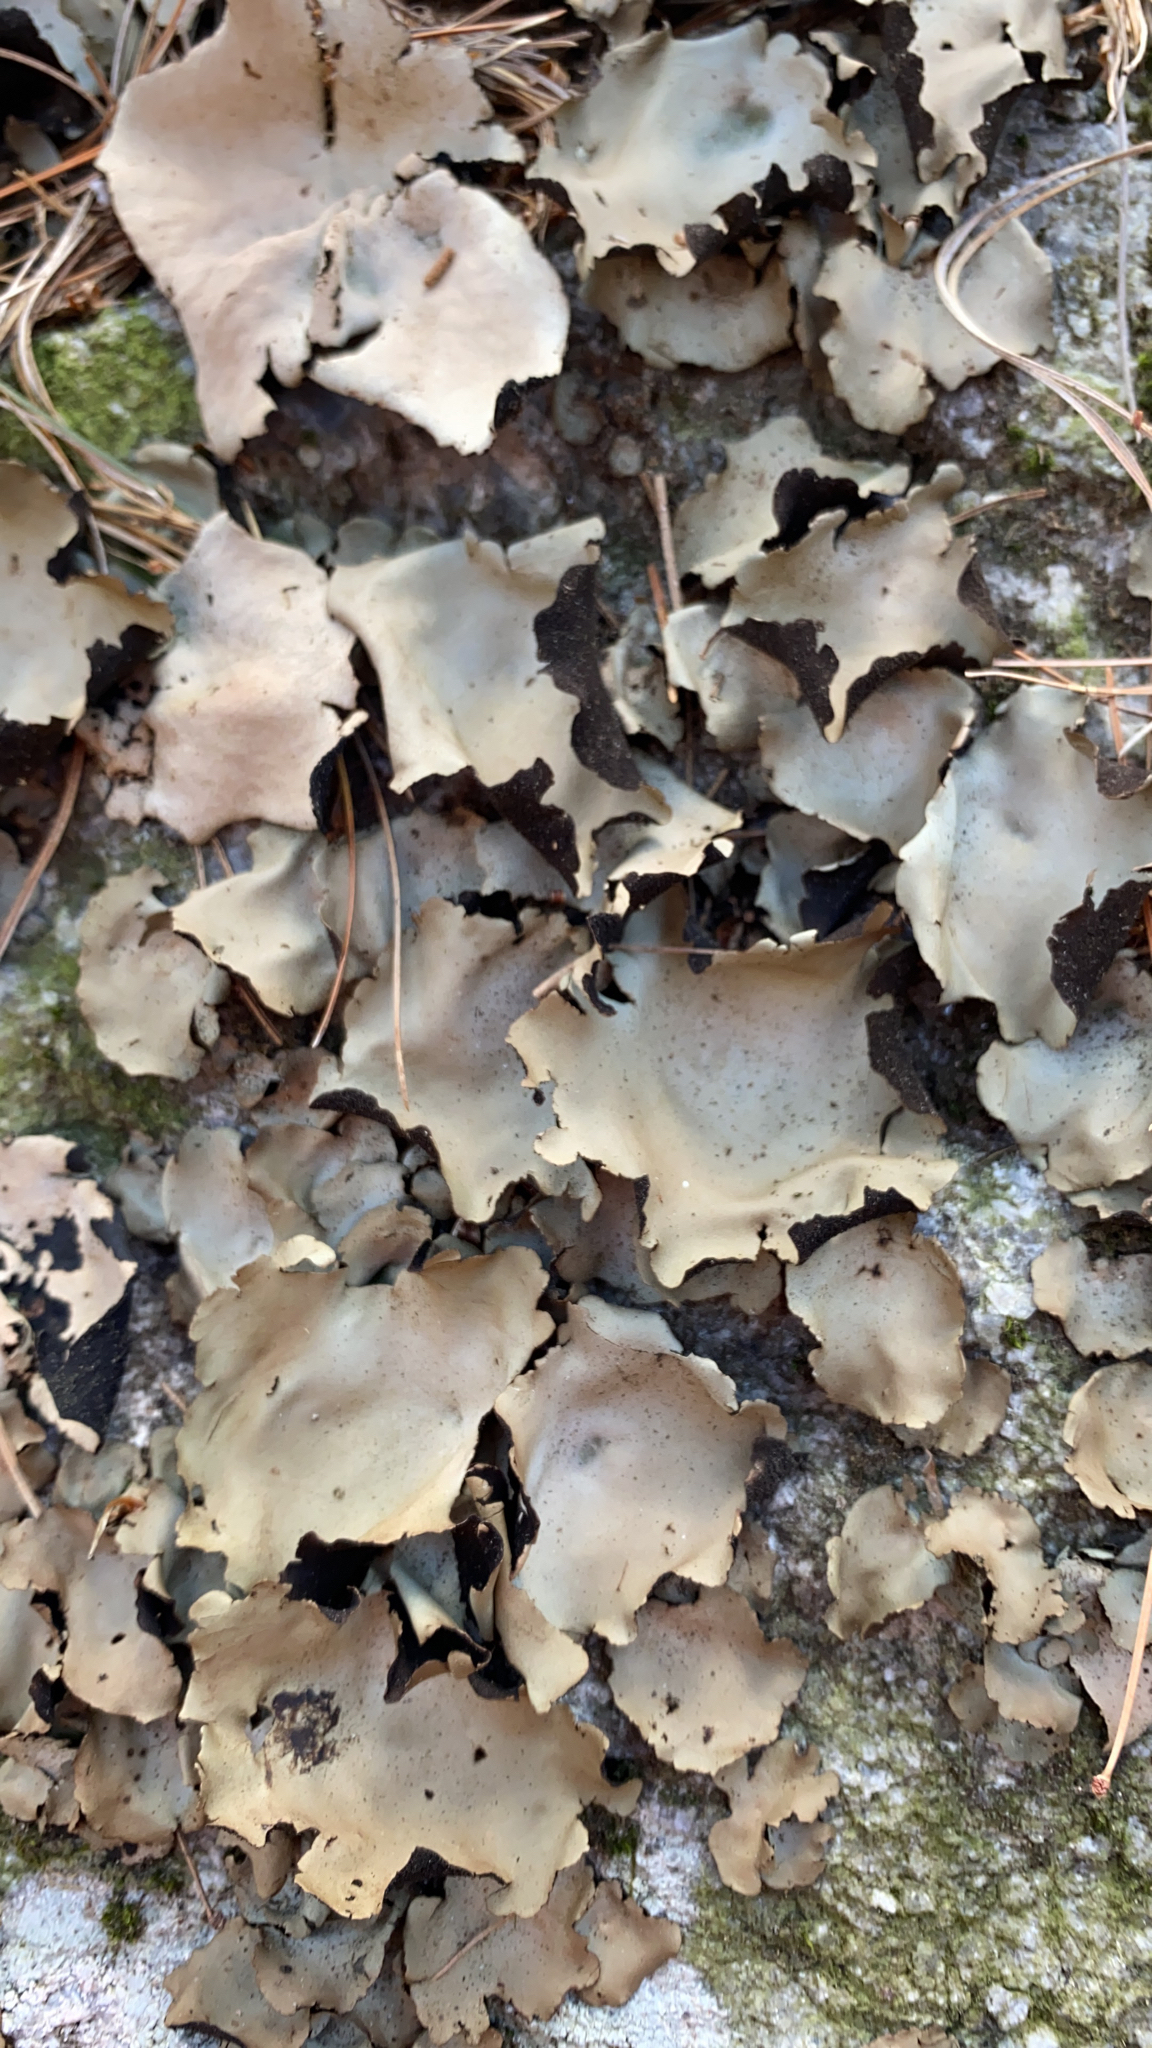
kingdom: Fungi
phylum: Ascomycota
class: Lecanoromycetes
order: Umbilicariales
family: Umbilicariaceae
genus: Umbilicaria
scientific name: Umbilicaria mammulata
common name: Smooth rock tripe
